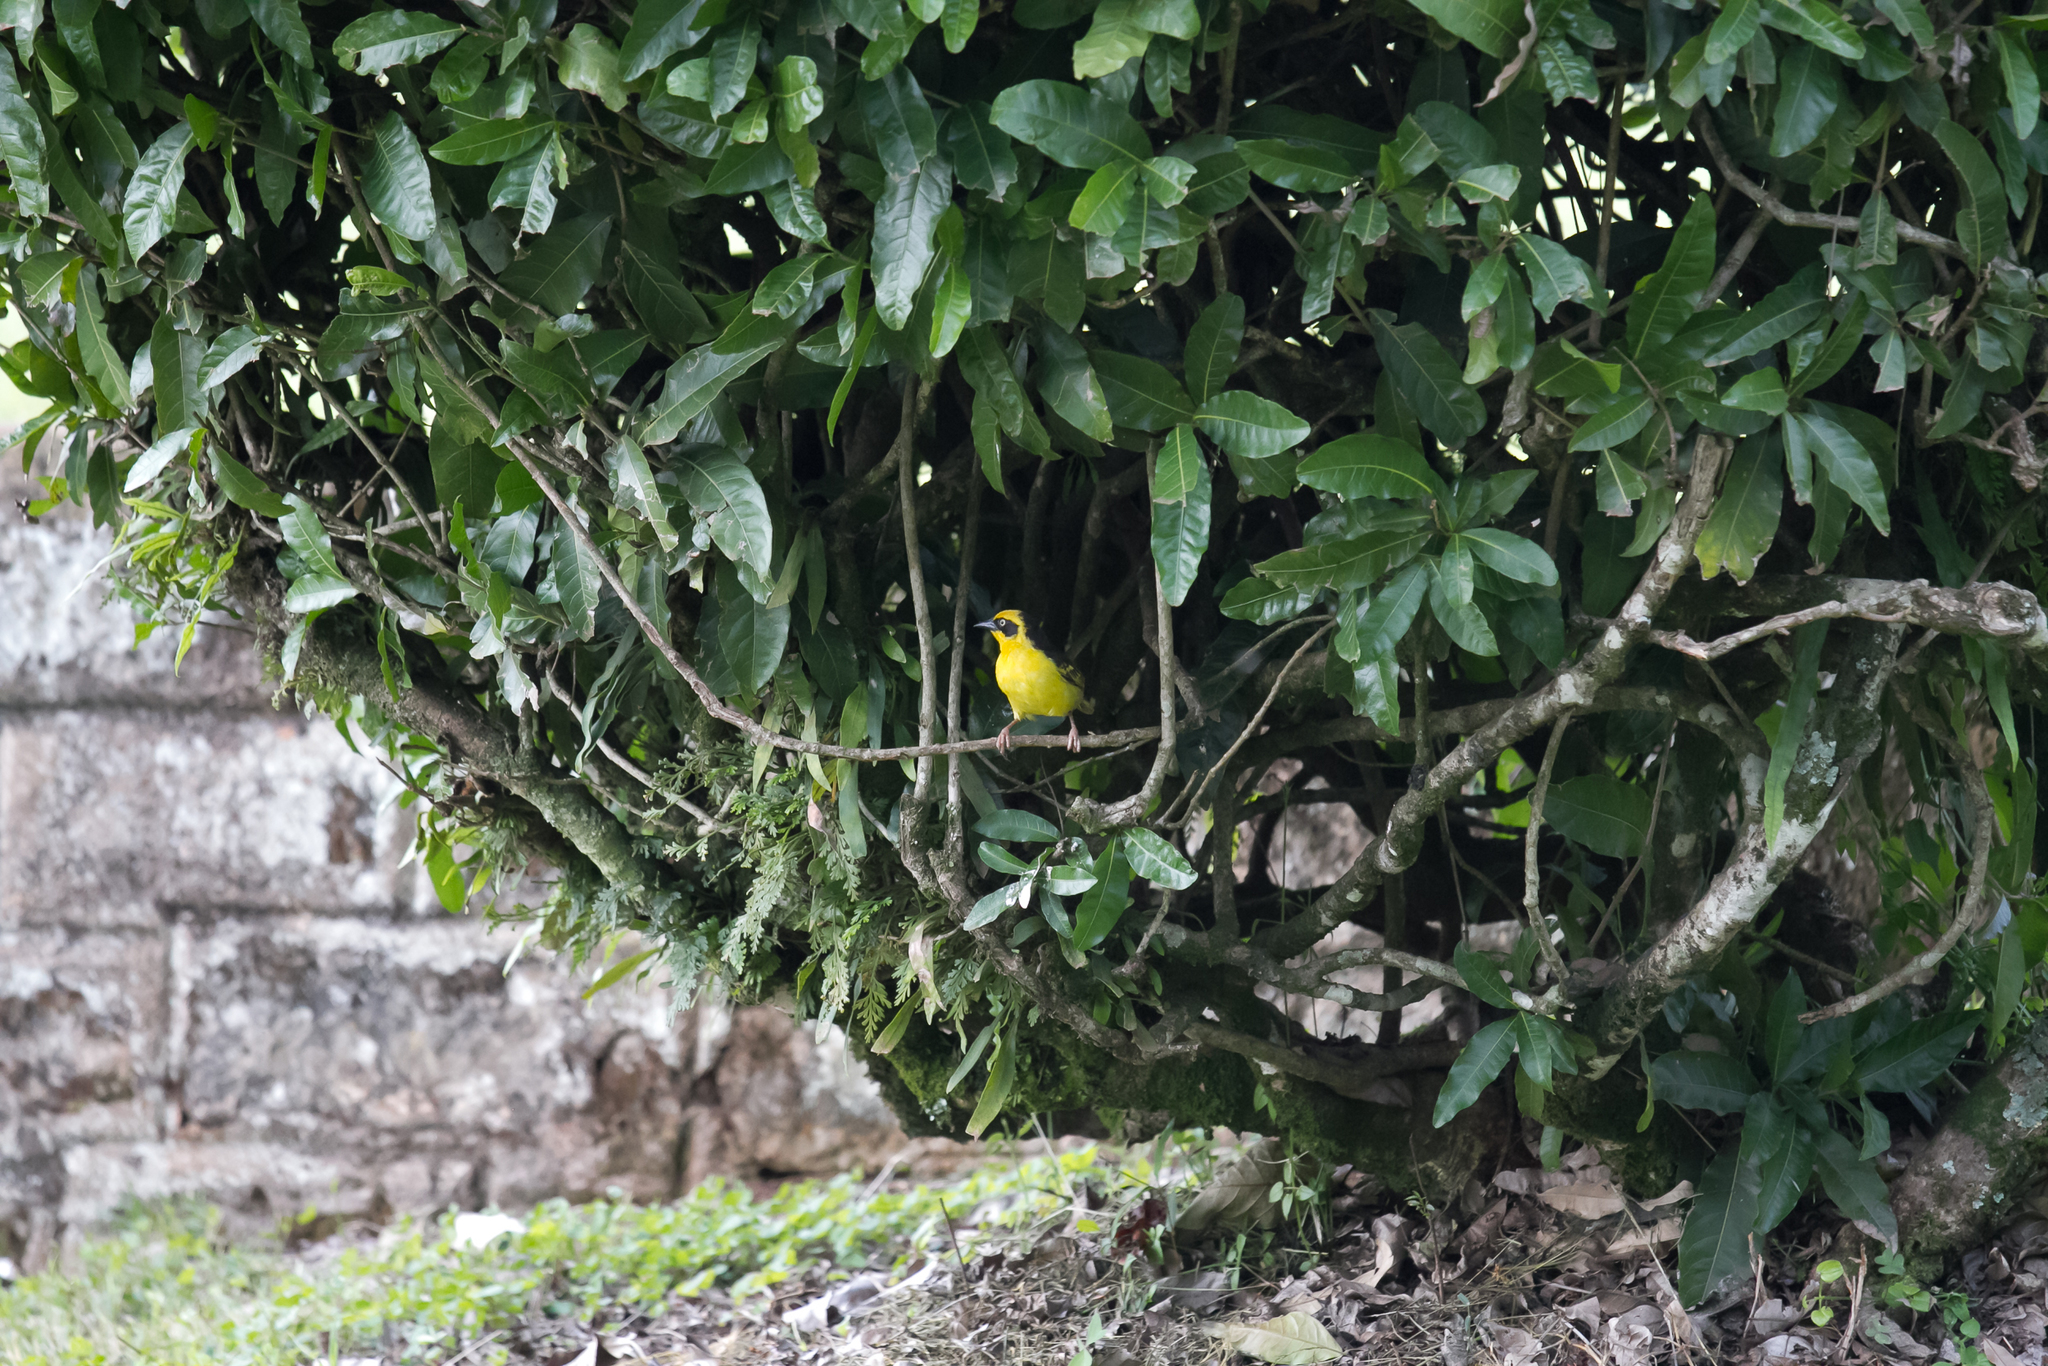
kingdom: Animalia
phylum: Chordata
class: Aves
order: Passeriformes
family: Ploceidae
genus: Ploceus
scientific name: Ploceus baglafecht
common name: Baglafecht weaver
